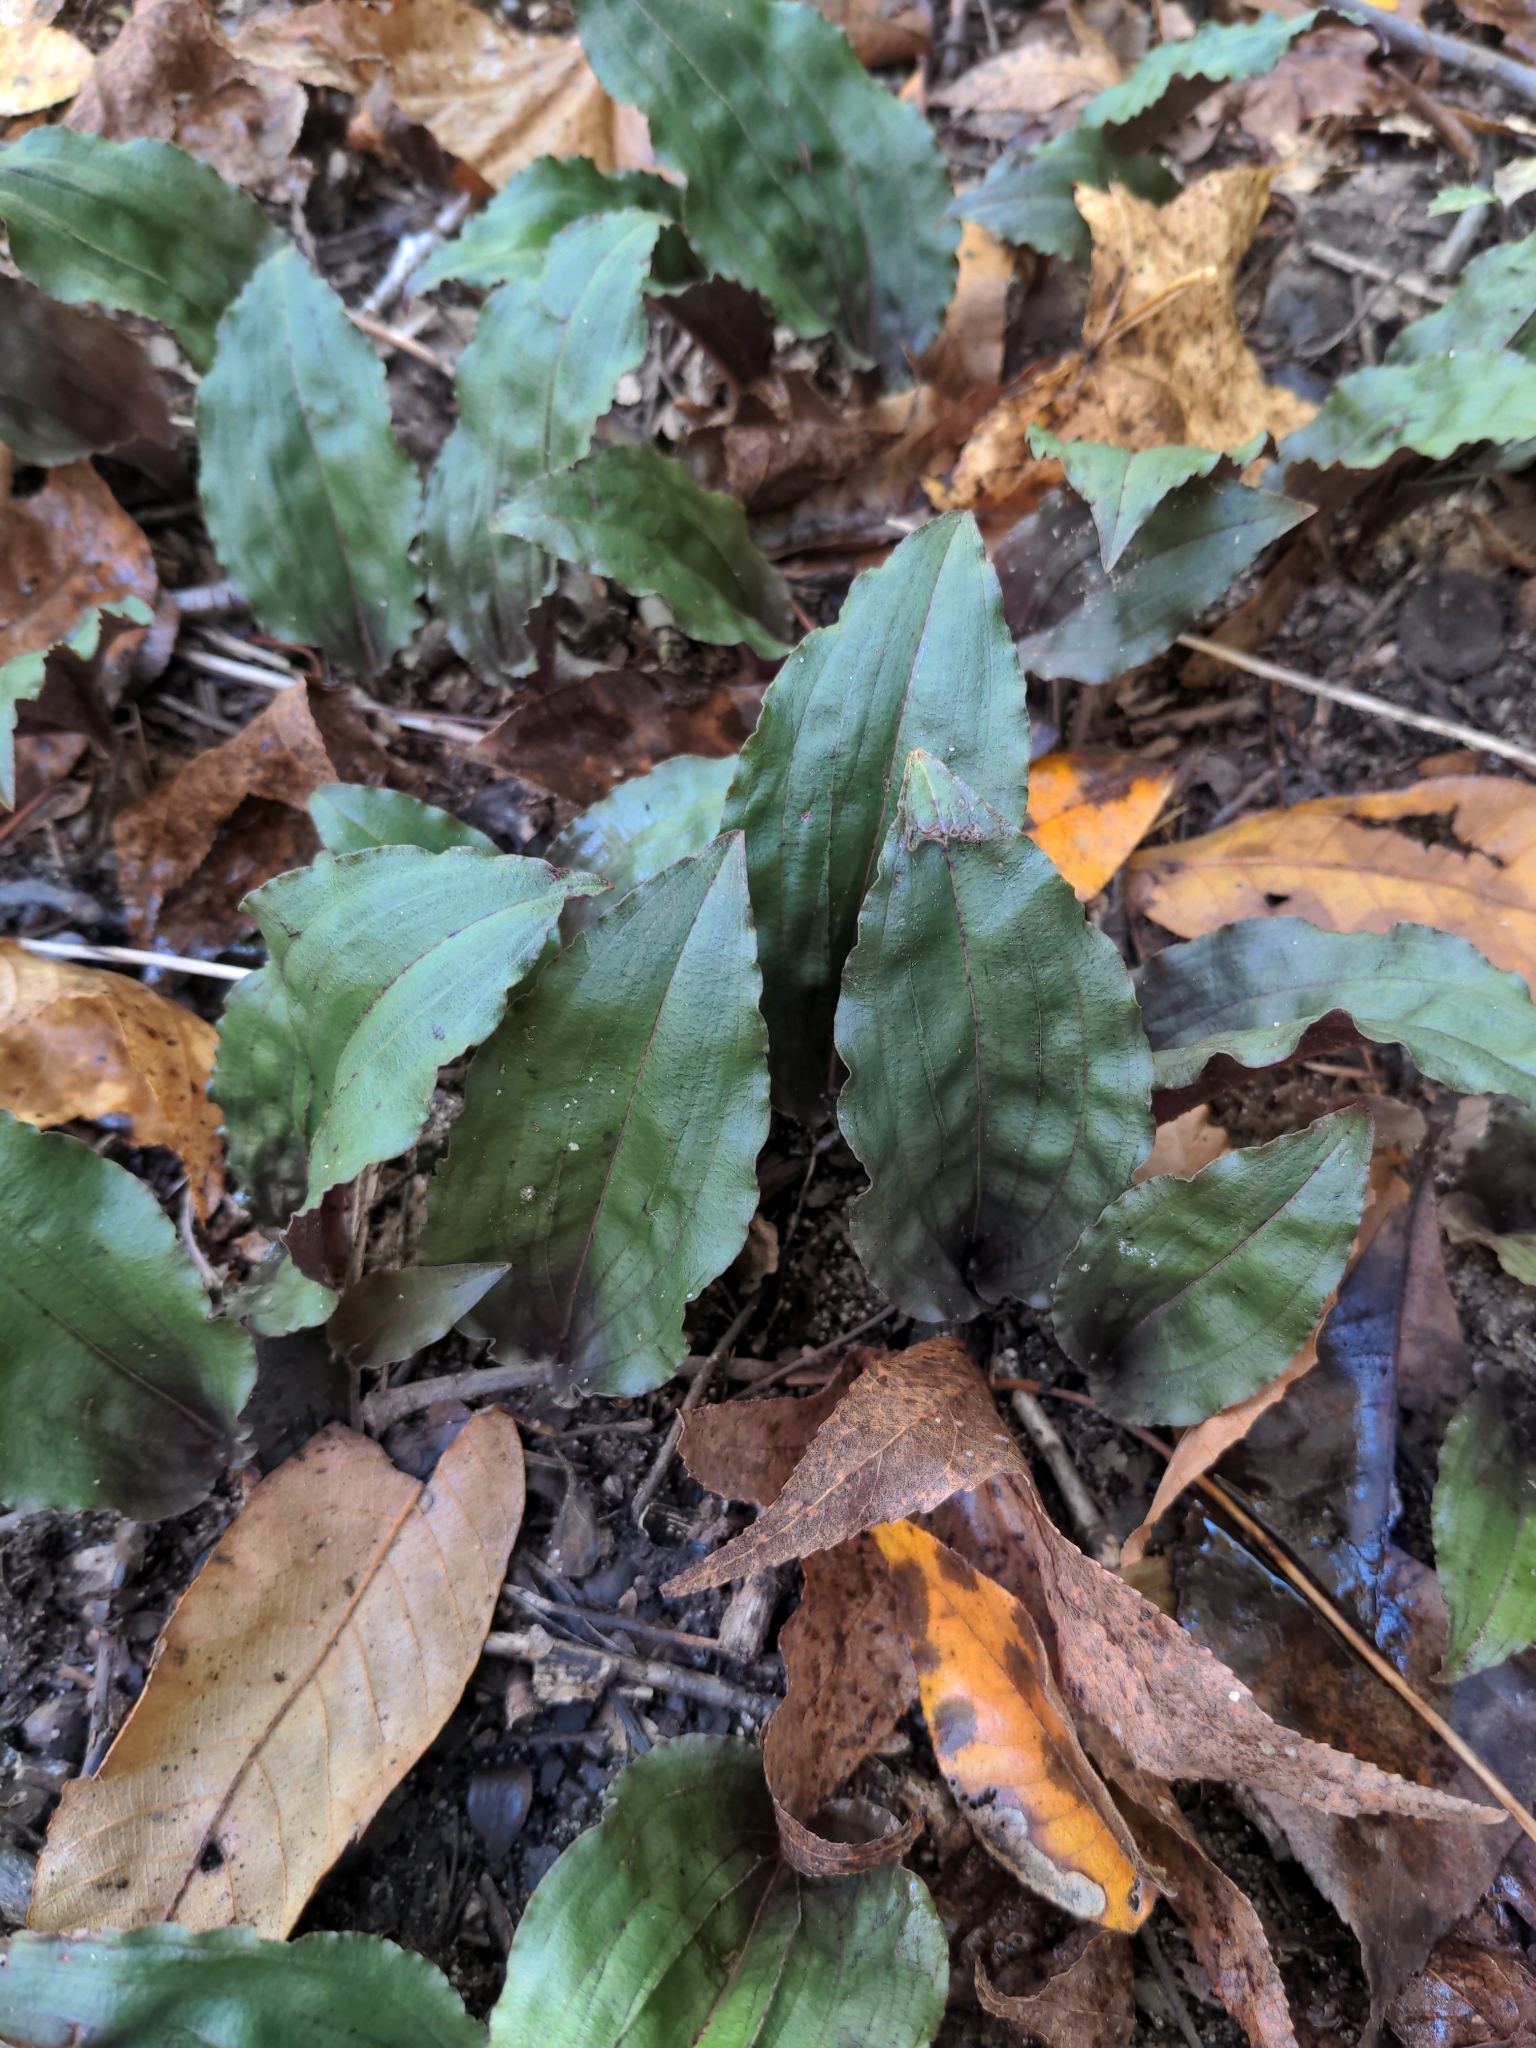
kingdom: Plantae
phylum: Tracheophyta
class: Liliopsida
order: Asparagales
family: Orchidaceae
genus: Tipularia
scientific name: Tipularia discolor
